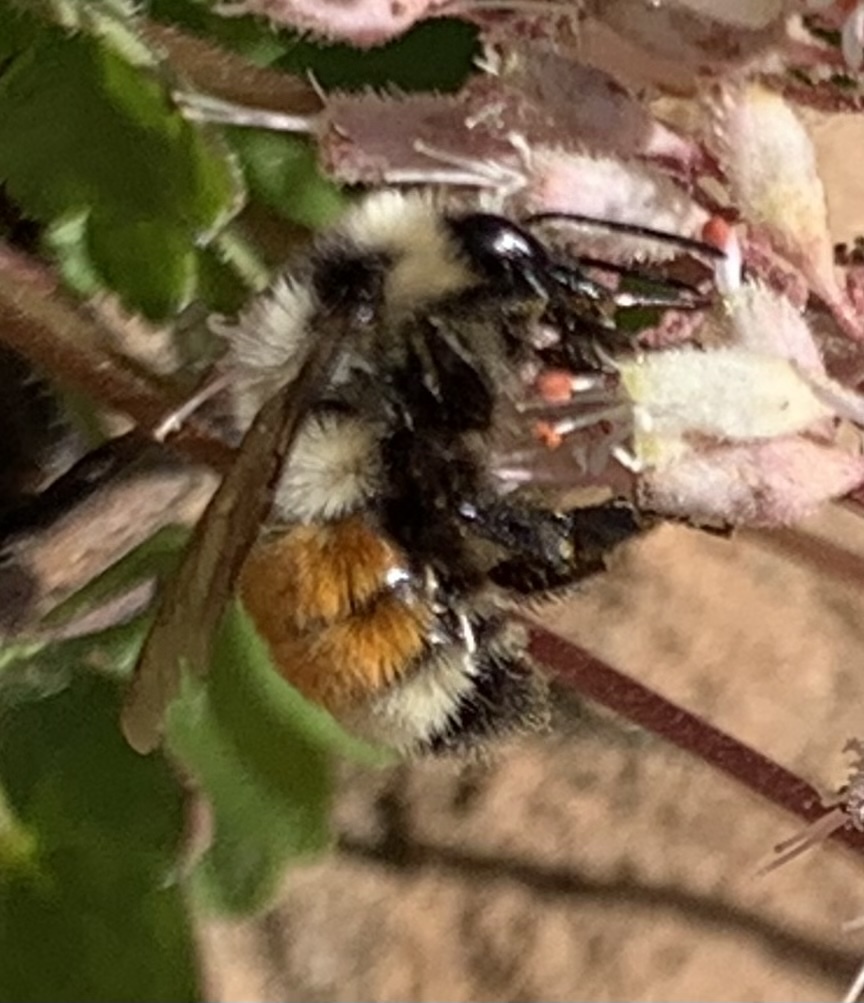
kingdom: Animalia
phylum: Arthropoda
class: Insecta
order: Hymenoptera
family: Apidae
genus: Bombus
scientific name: Bombus huntii
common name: Hunt bumble bee
